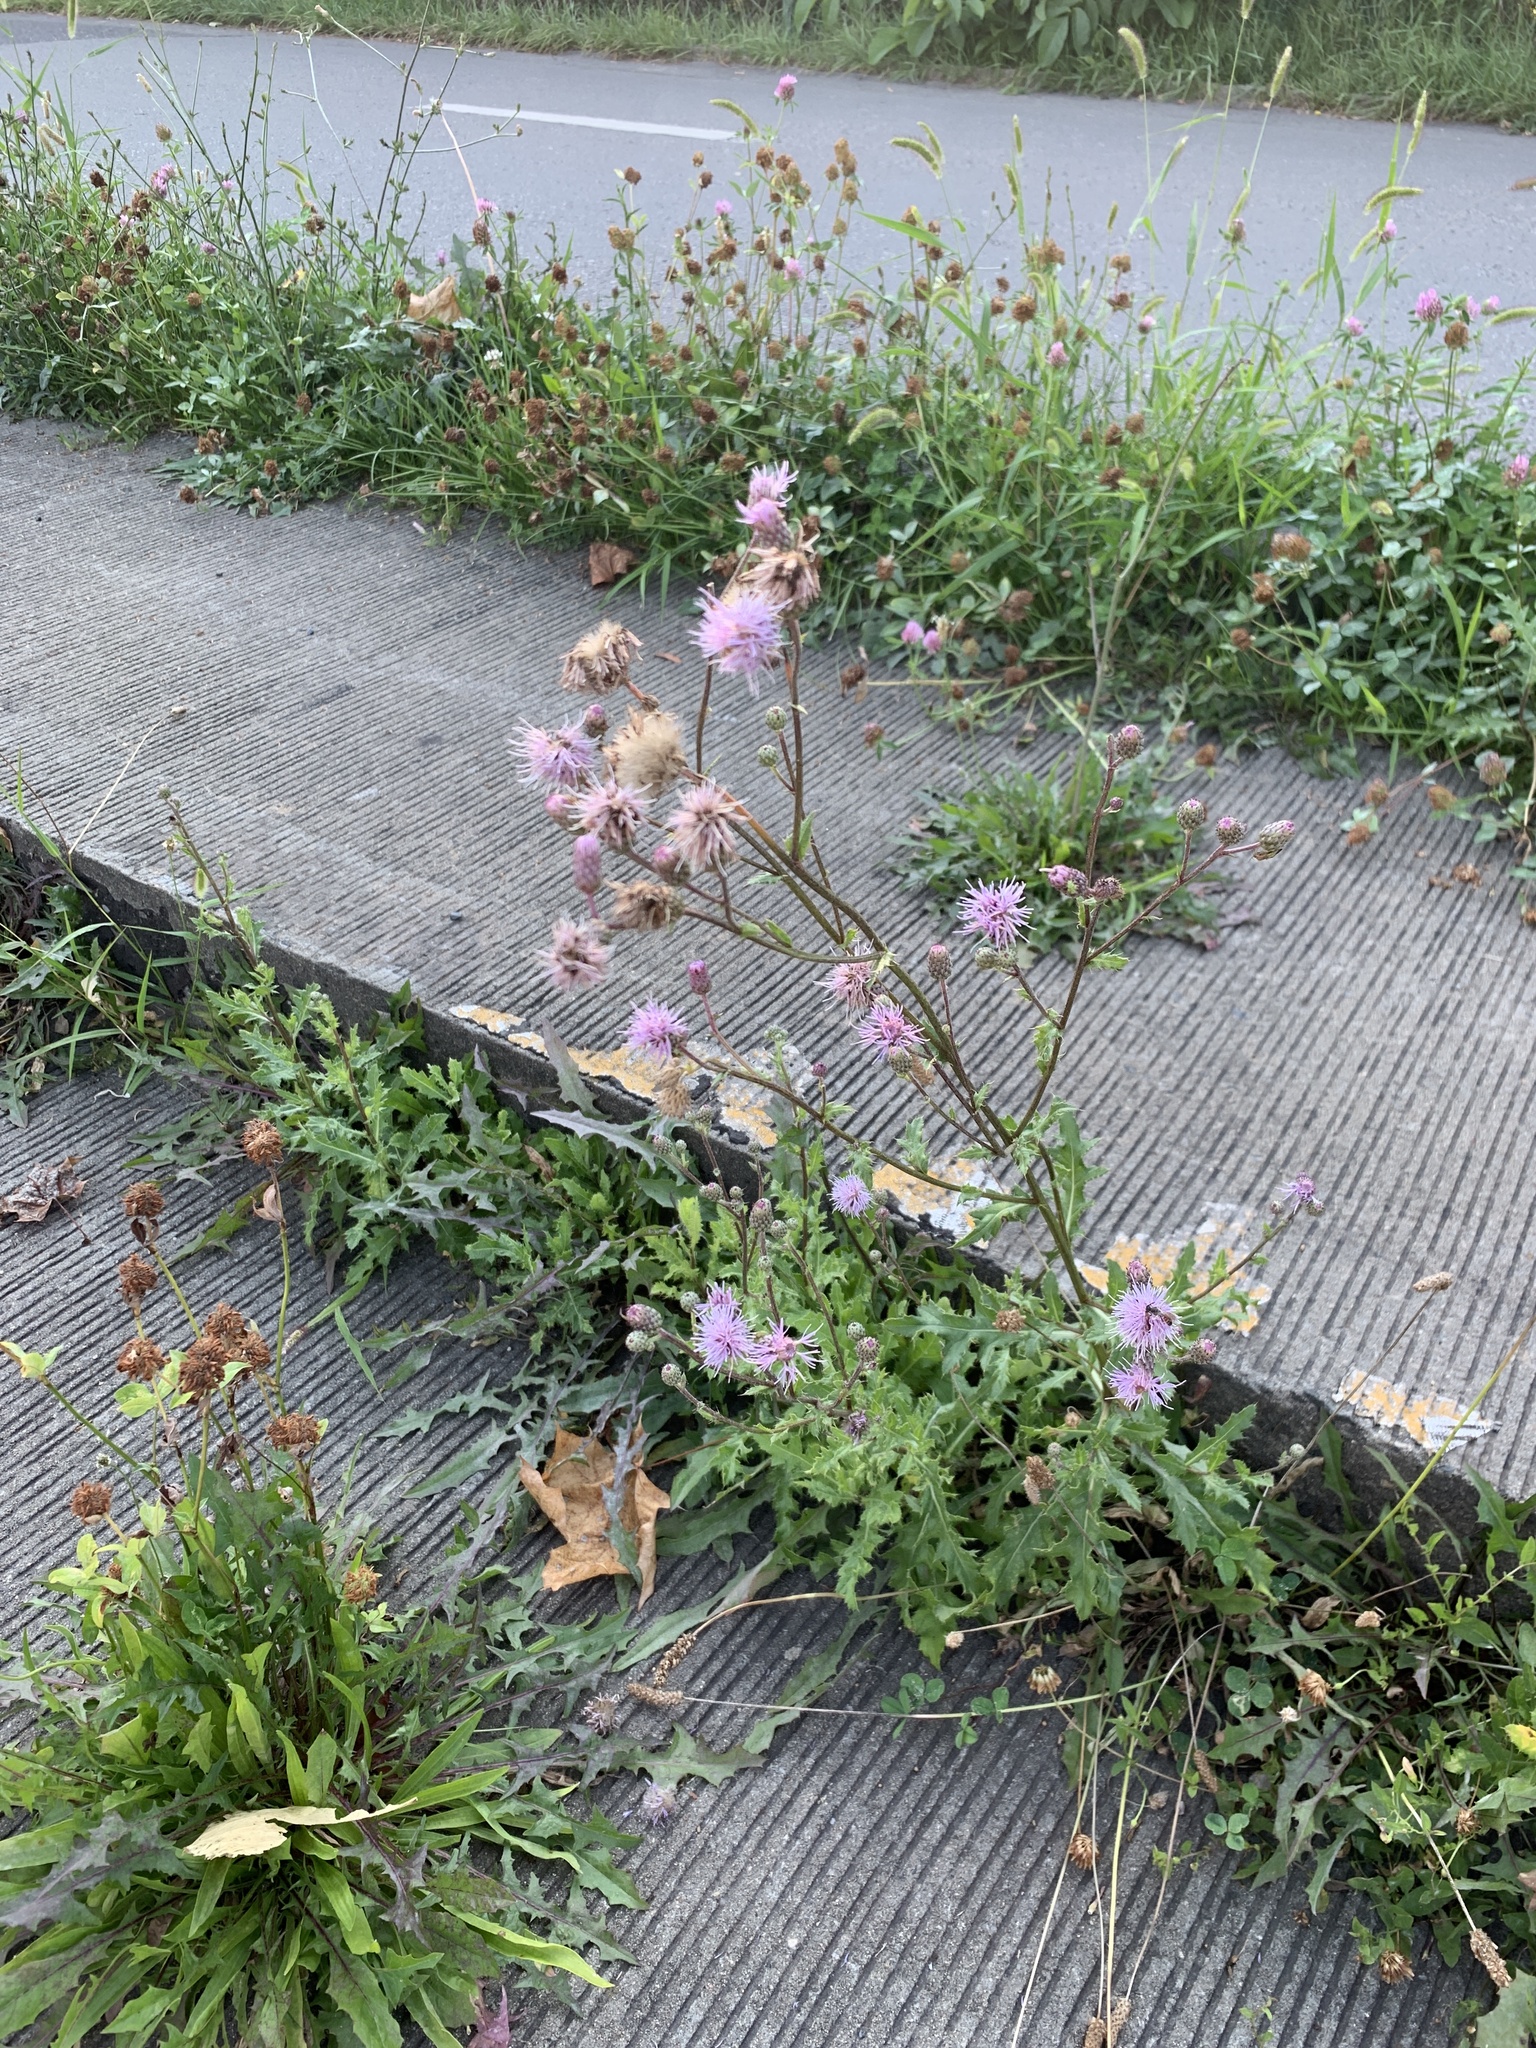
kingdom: Plantae
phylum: Tracheophyta
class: Magnoliopsida
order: Asterales
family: Asteraceae
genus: Cirsium
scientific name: Cirsium arvense
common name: Creeping thistle
